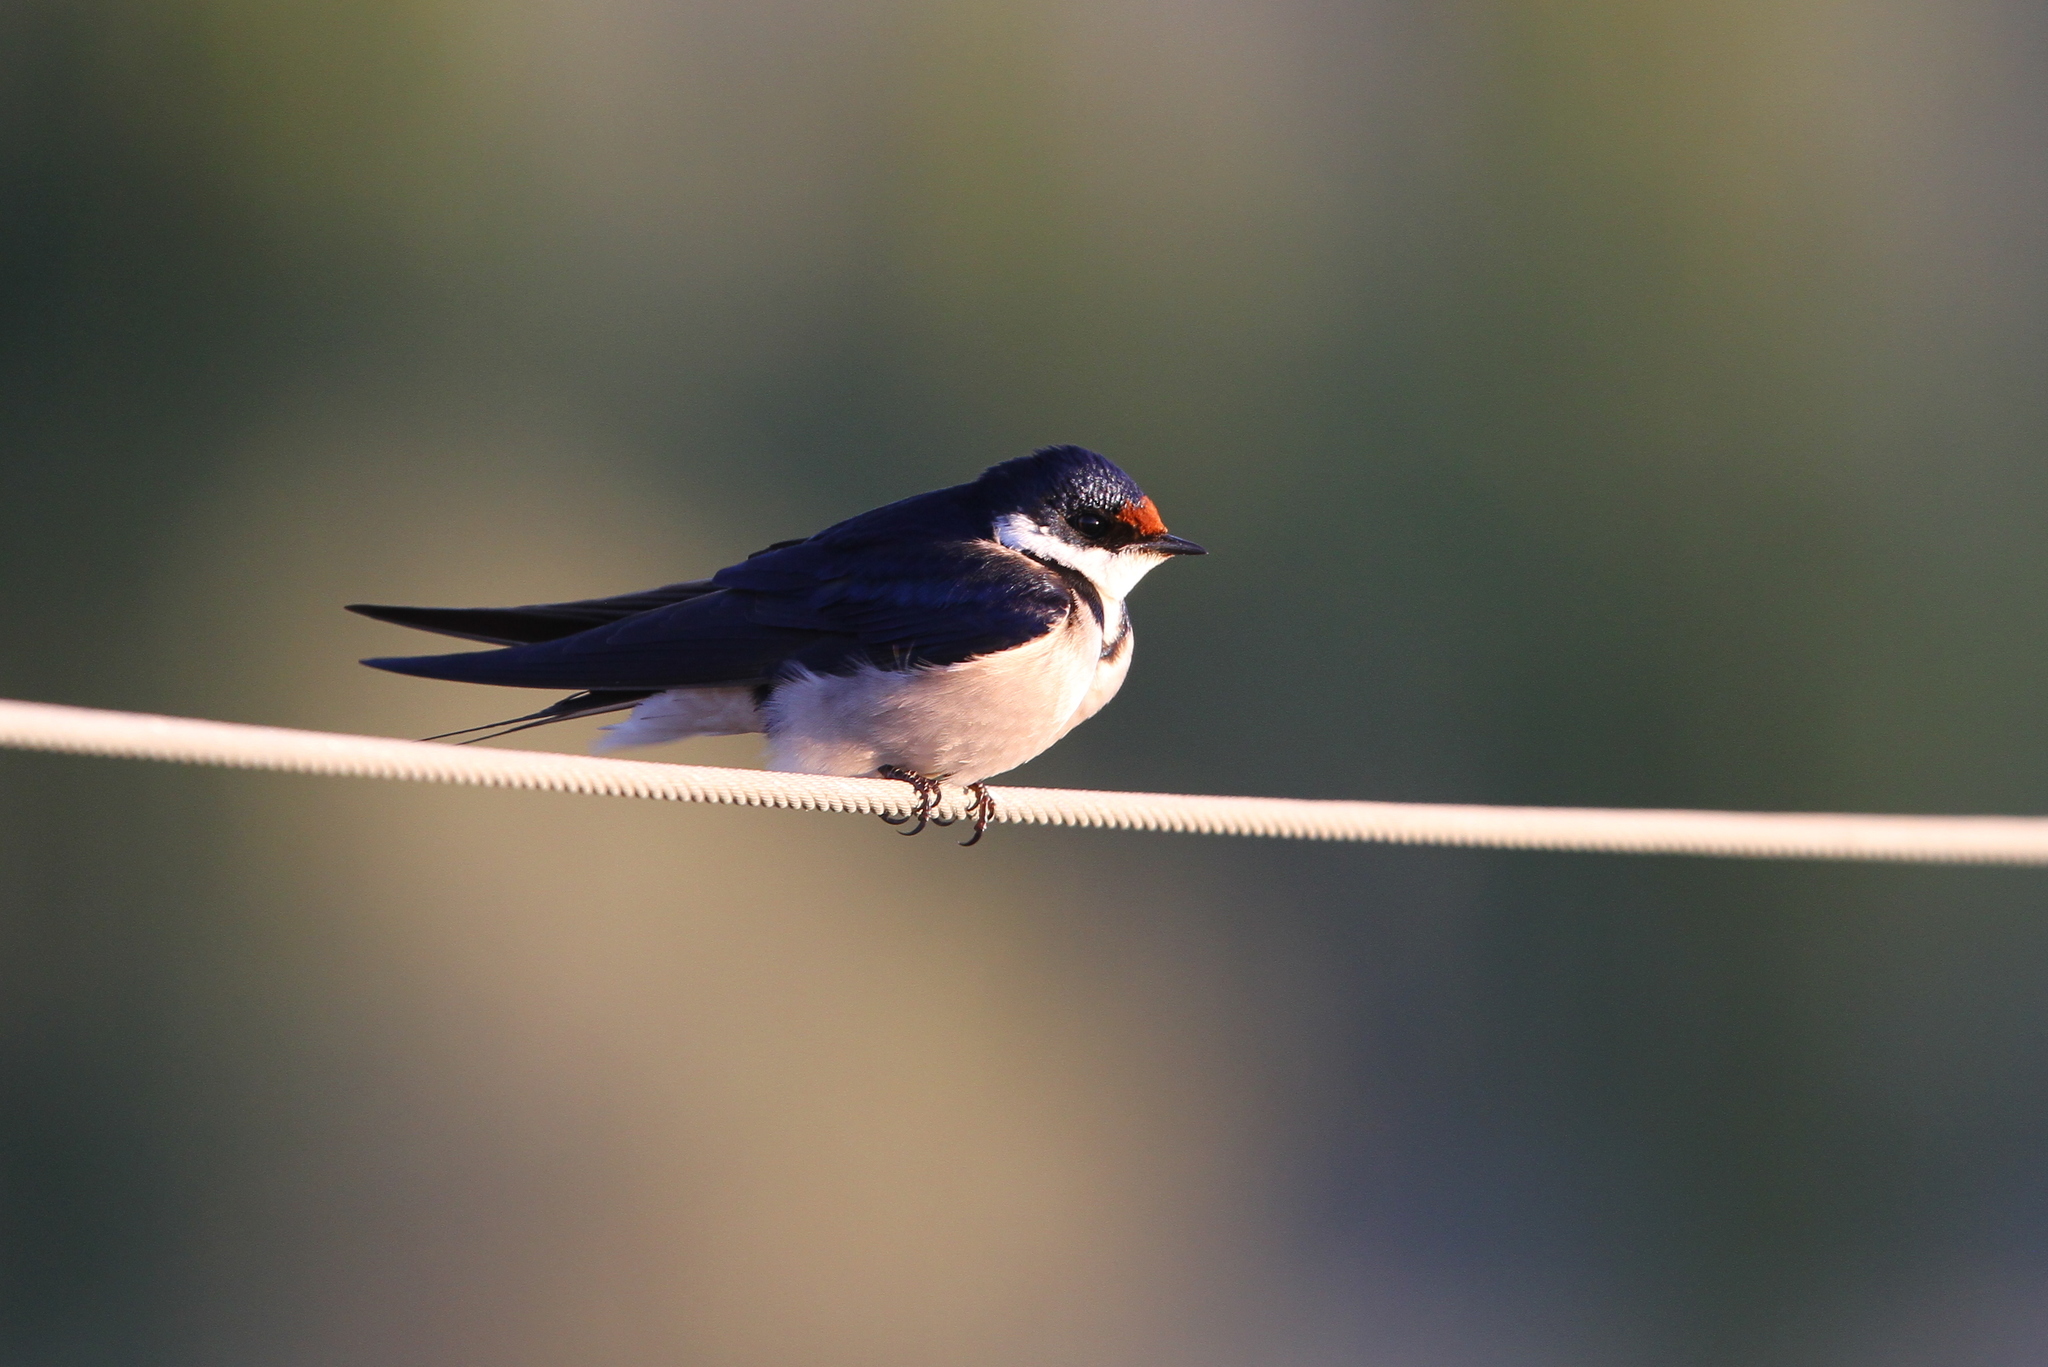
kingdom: Animalia
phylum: Chordata
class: Aves
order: Passeriformes
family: Hirundinidae
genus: Hirundo
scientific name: Hirundo albigularis
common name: White-throated swallow
